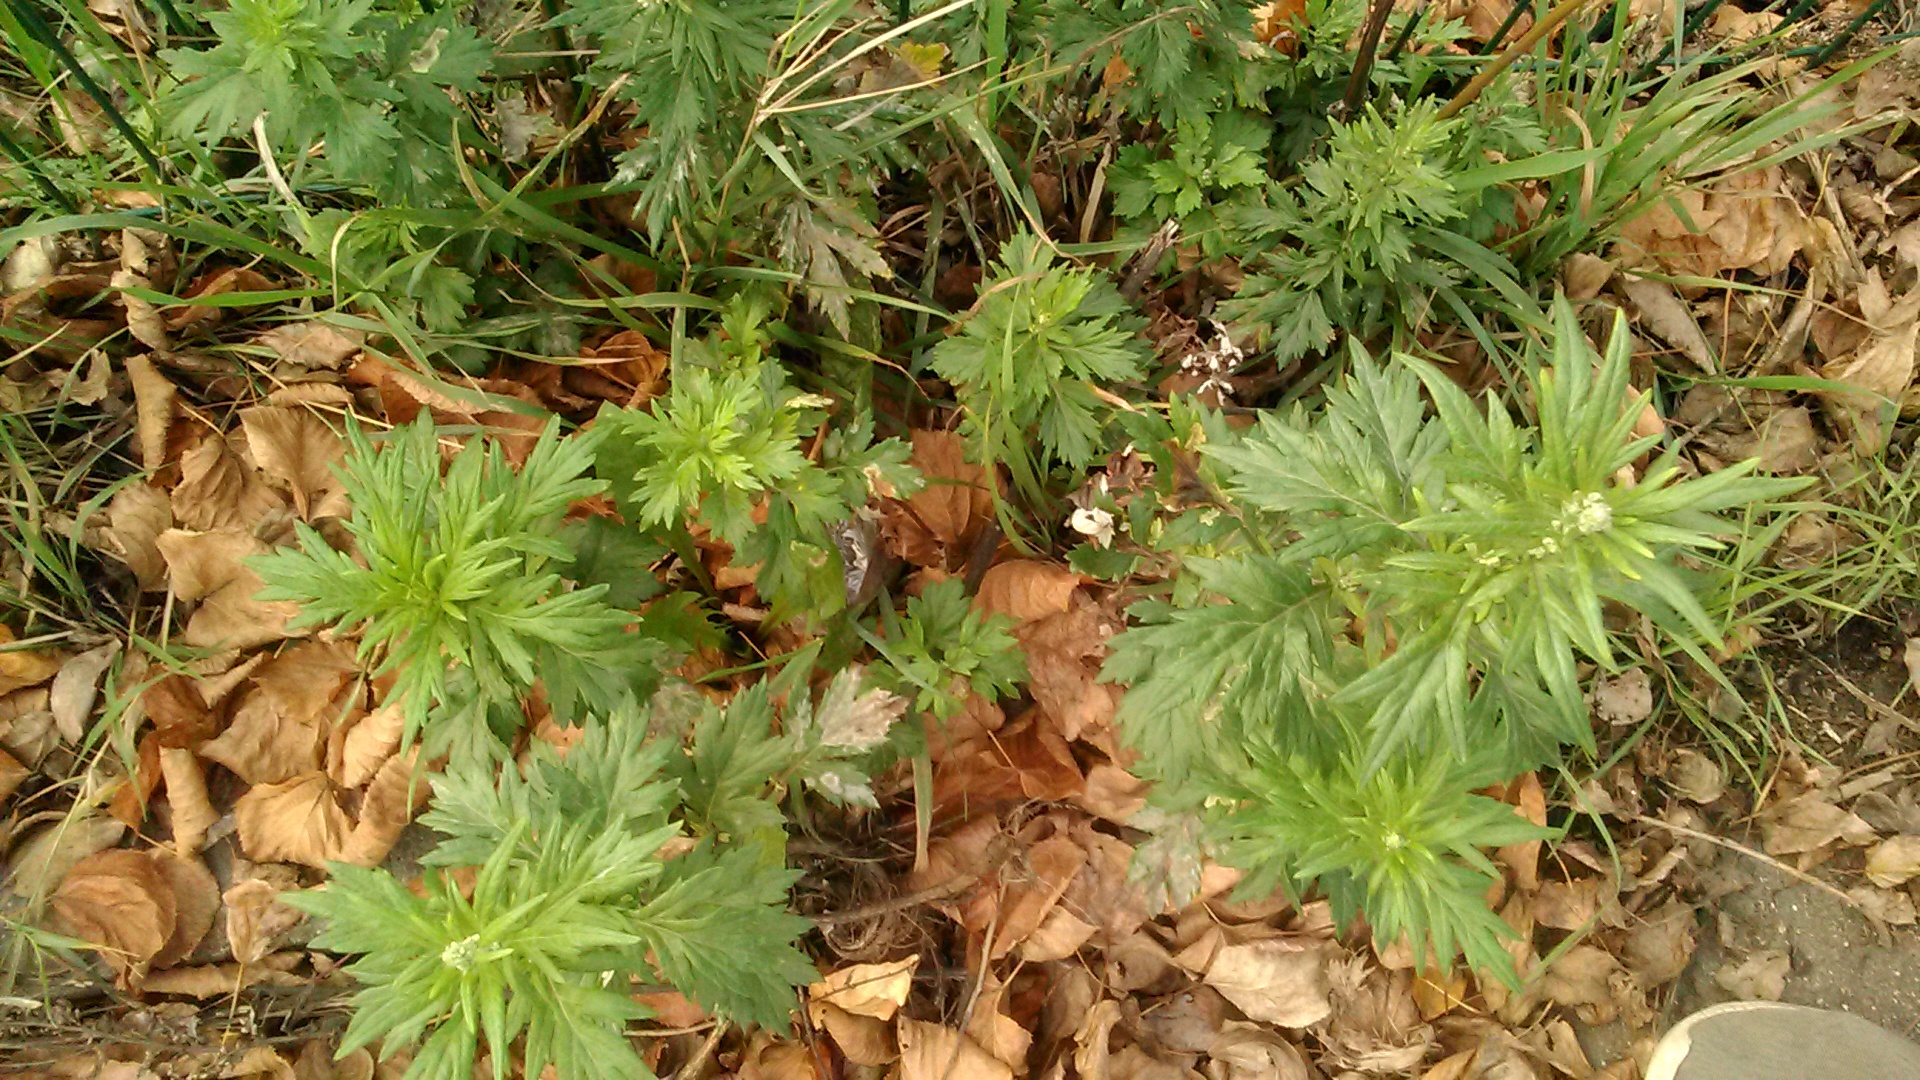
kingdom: Plantae
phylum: Tracheophyta
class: Magnoliopsida
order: Asterales
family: Asteraceae
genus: Artemisia
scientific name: Artemisia vulgaris
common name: Mugwort
